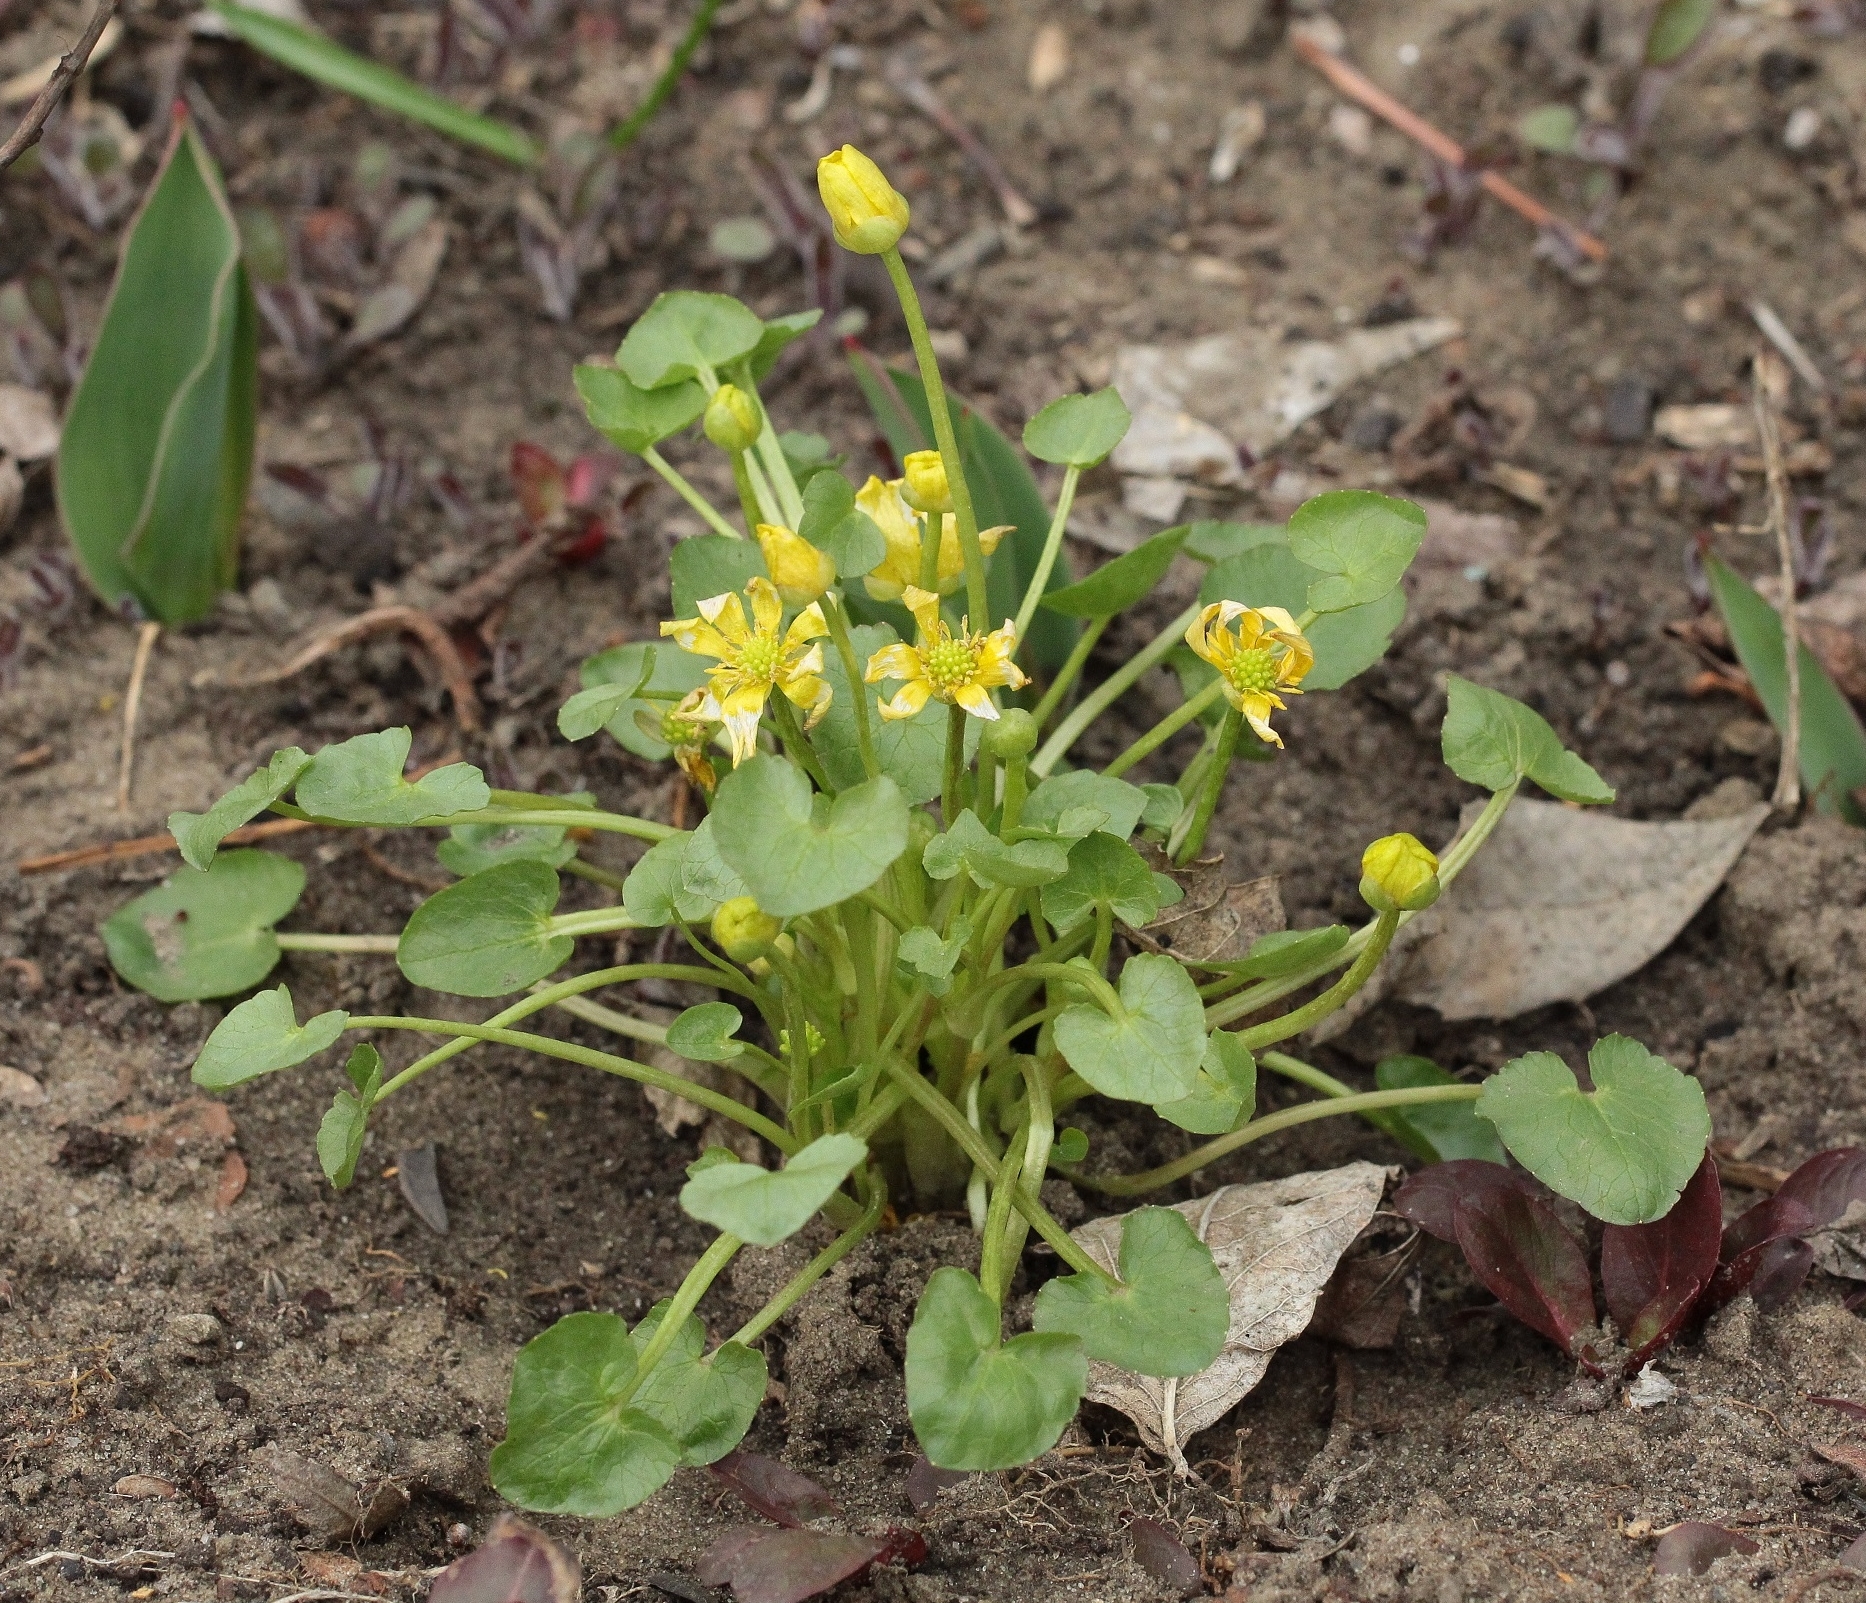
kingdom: Plantae
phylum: Tracheophyta
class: Magnoliopsida
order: Ranunculales
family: Ranunculaceae
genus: Ficaria
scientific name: Ficaria verna
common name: Lesser celandine
